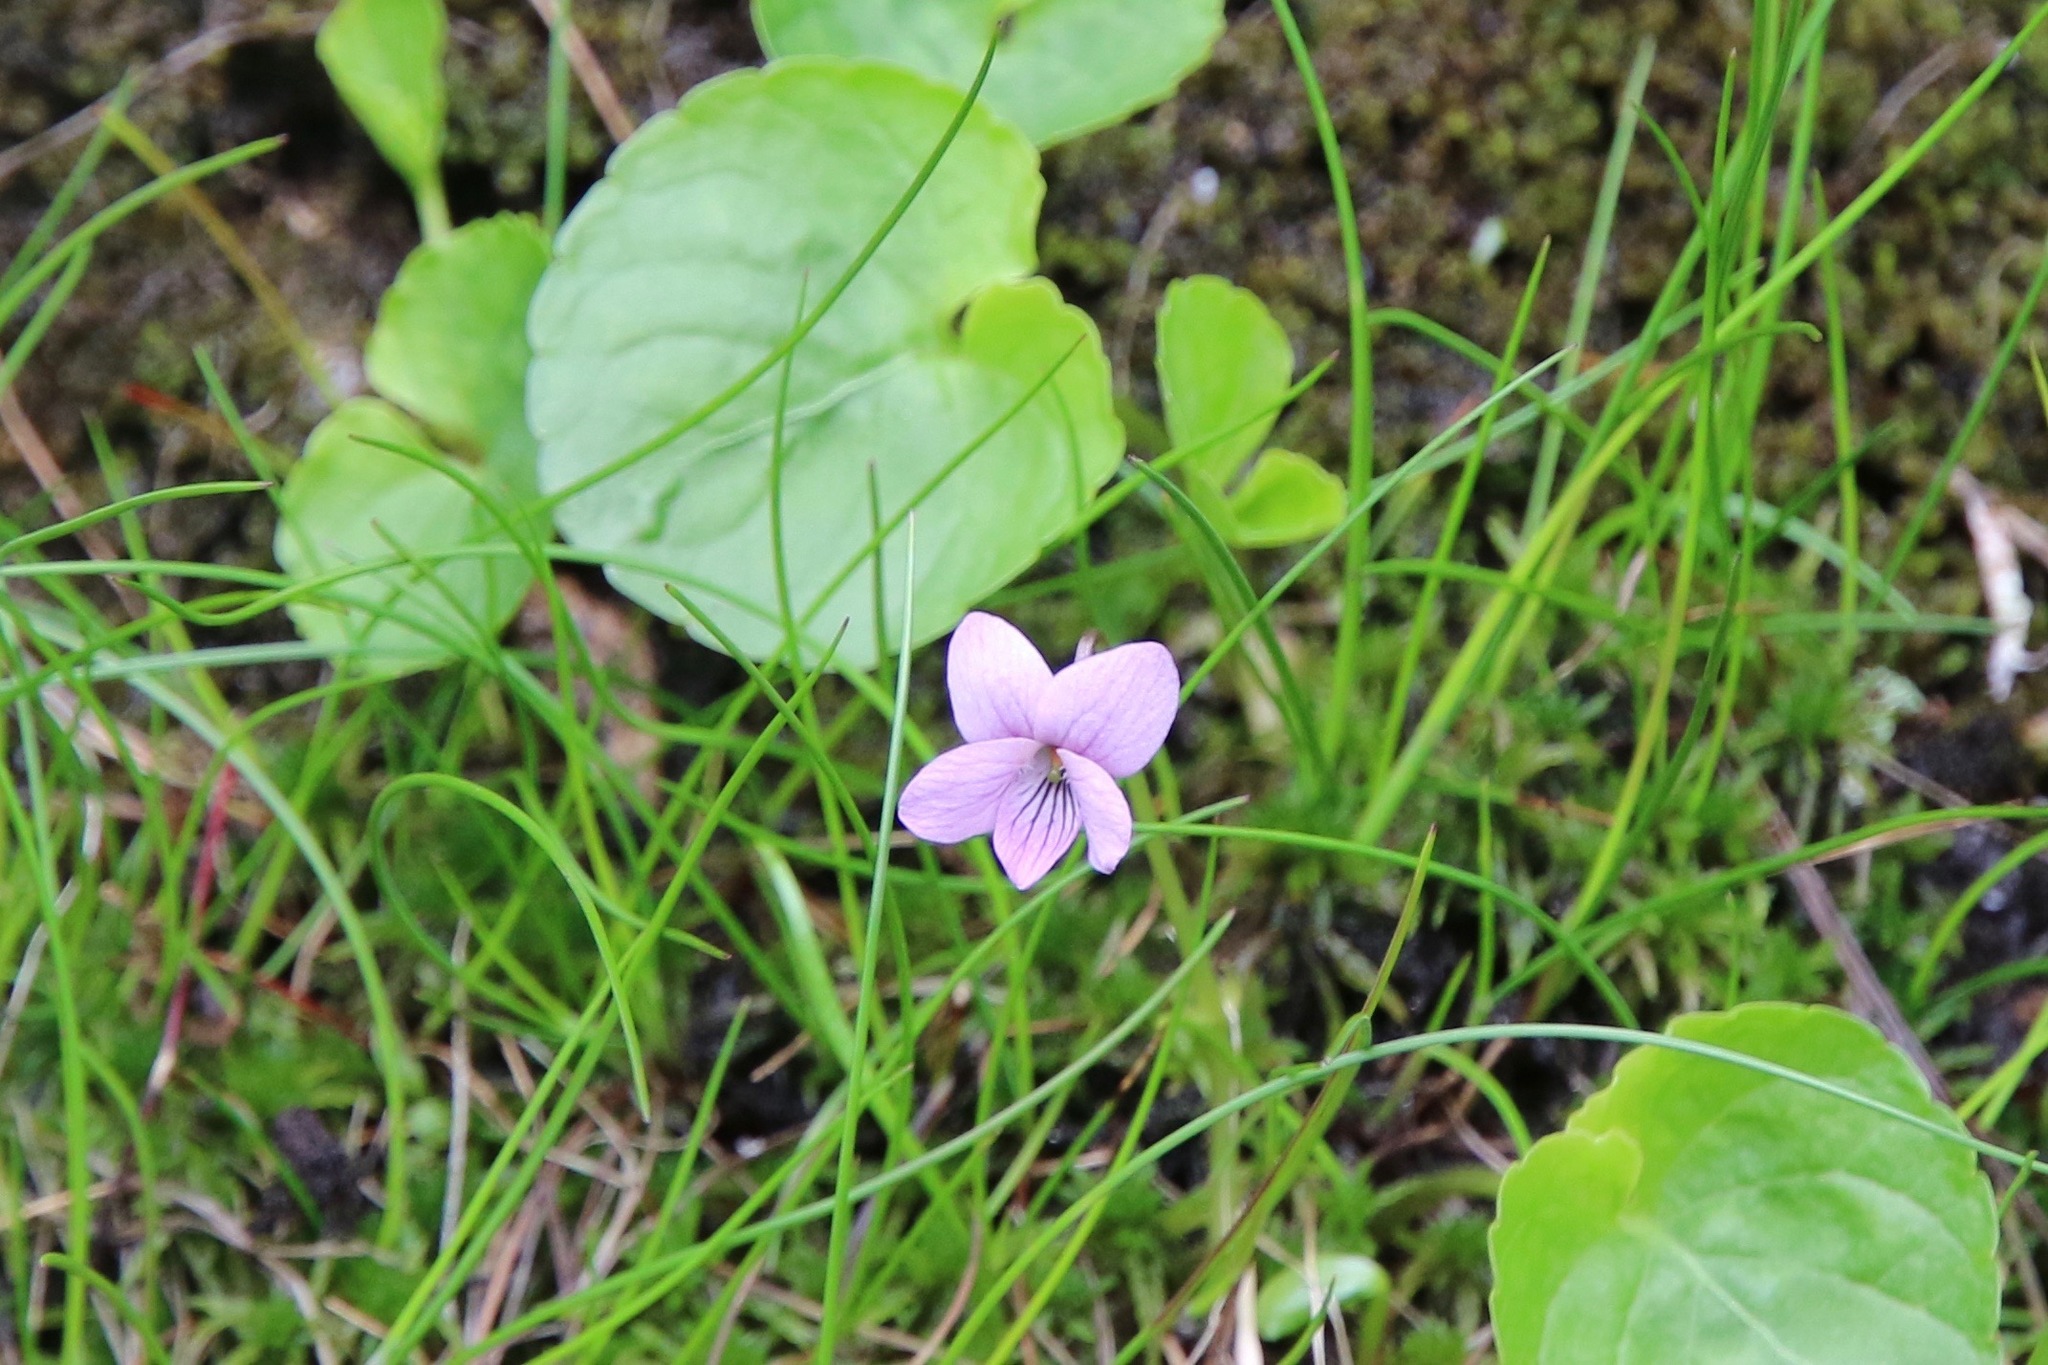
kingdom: Plantae
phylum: Tracheophyta
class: Magnoliopsida
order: Malpighiales
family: Violaceae
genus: Viola
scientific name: Viola palustris
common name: Marsh violet
